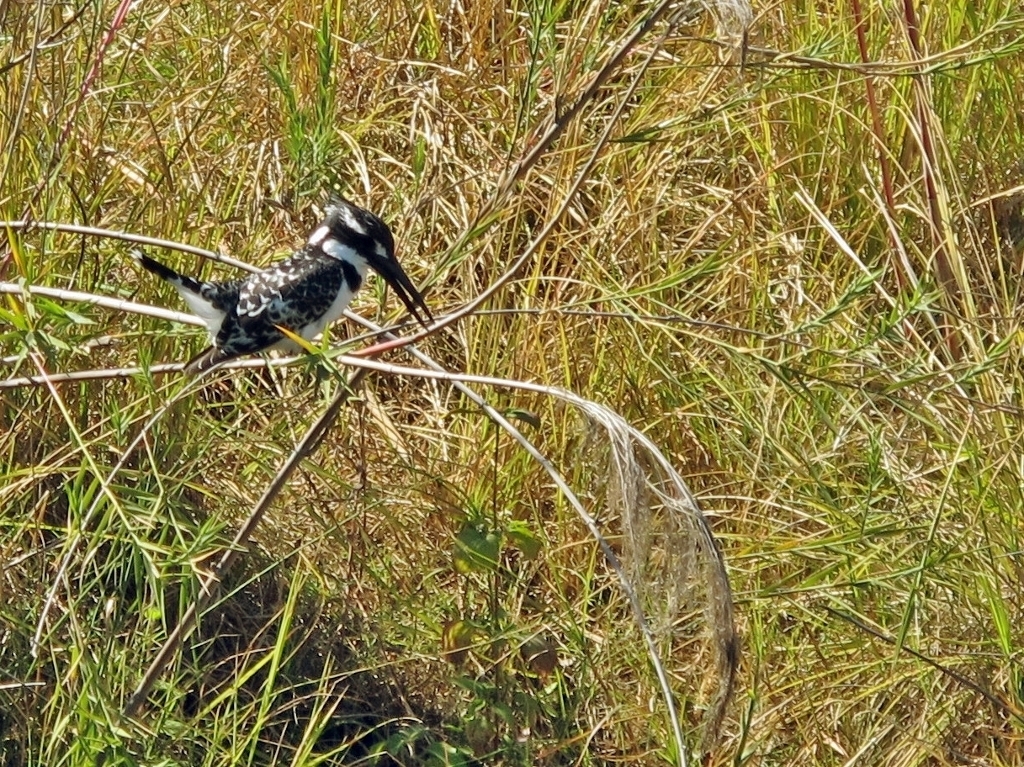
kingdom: Animalia
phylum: Chordata
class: Aves
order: Coraciiformes
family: Alcedinidae
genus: Ceryle
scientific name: Ceryle rudis
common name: Pied kingfisher
